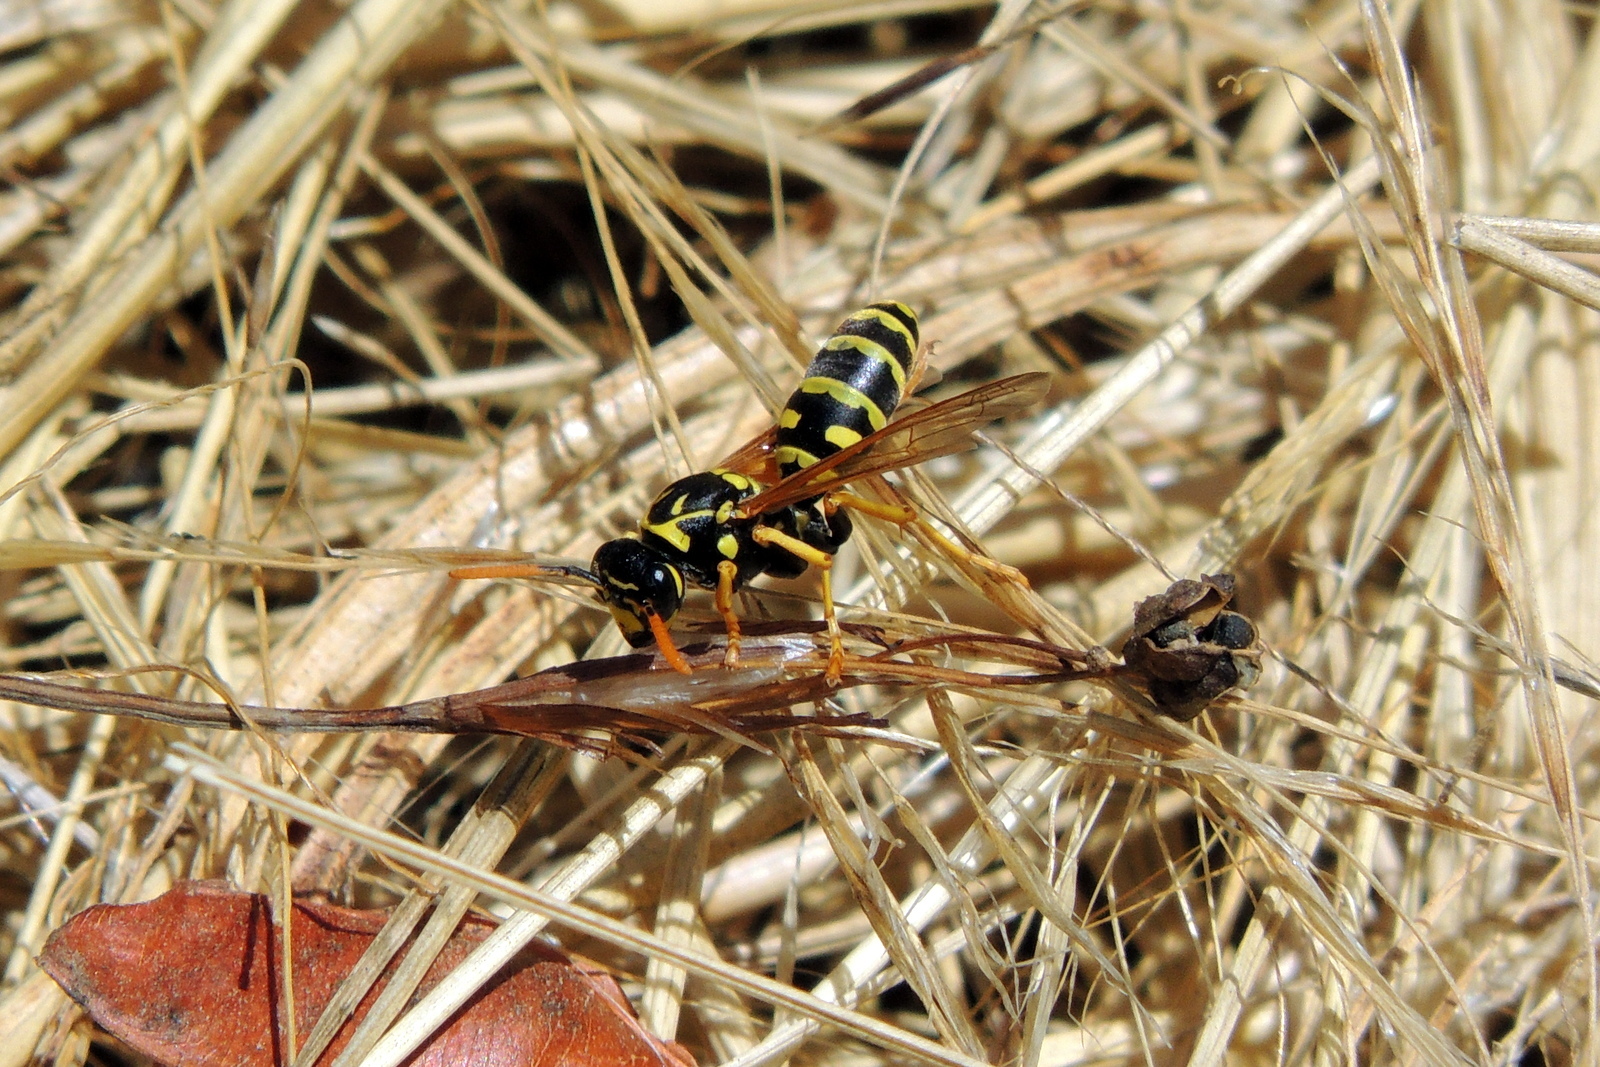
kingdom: Animalia
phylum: Arthropoda
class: Insecta
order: Hymenoptera
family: Eumenidae
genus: Polistes
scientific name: Polistes dominula
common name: Paper wasp
